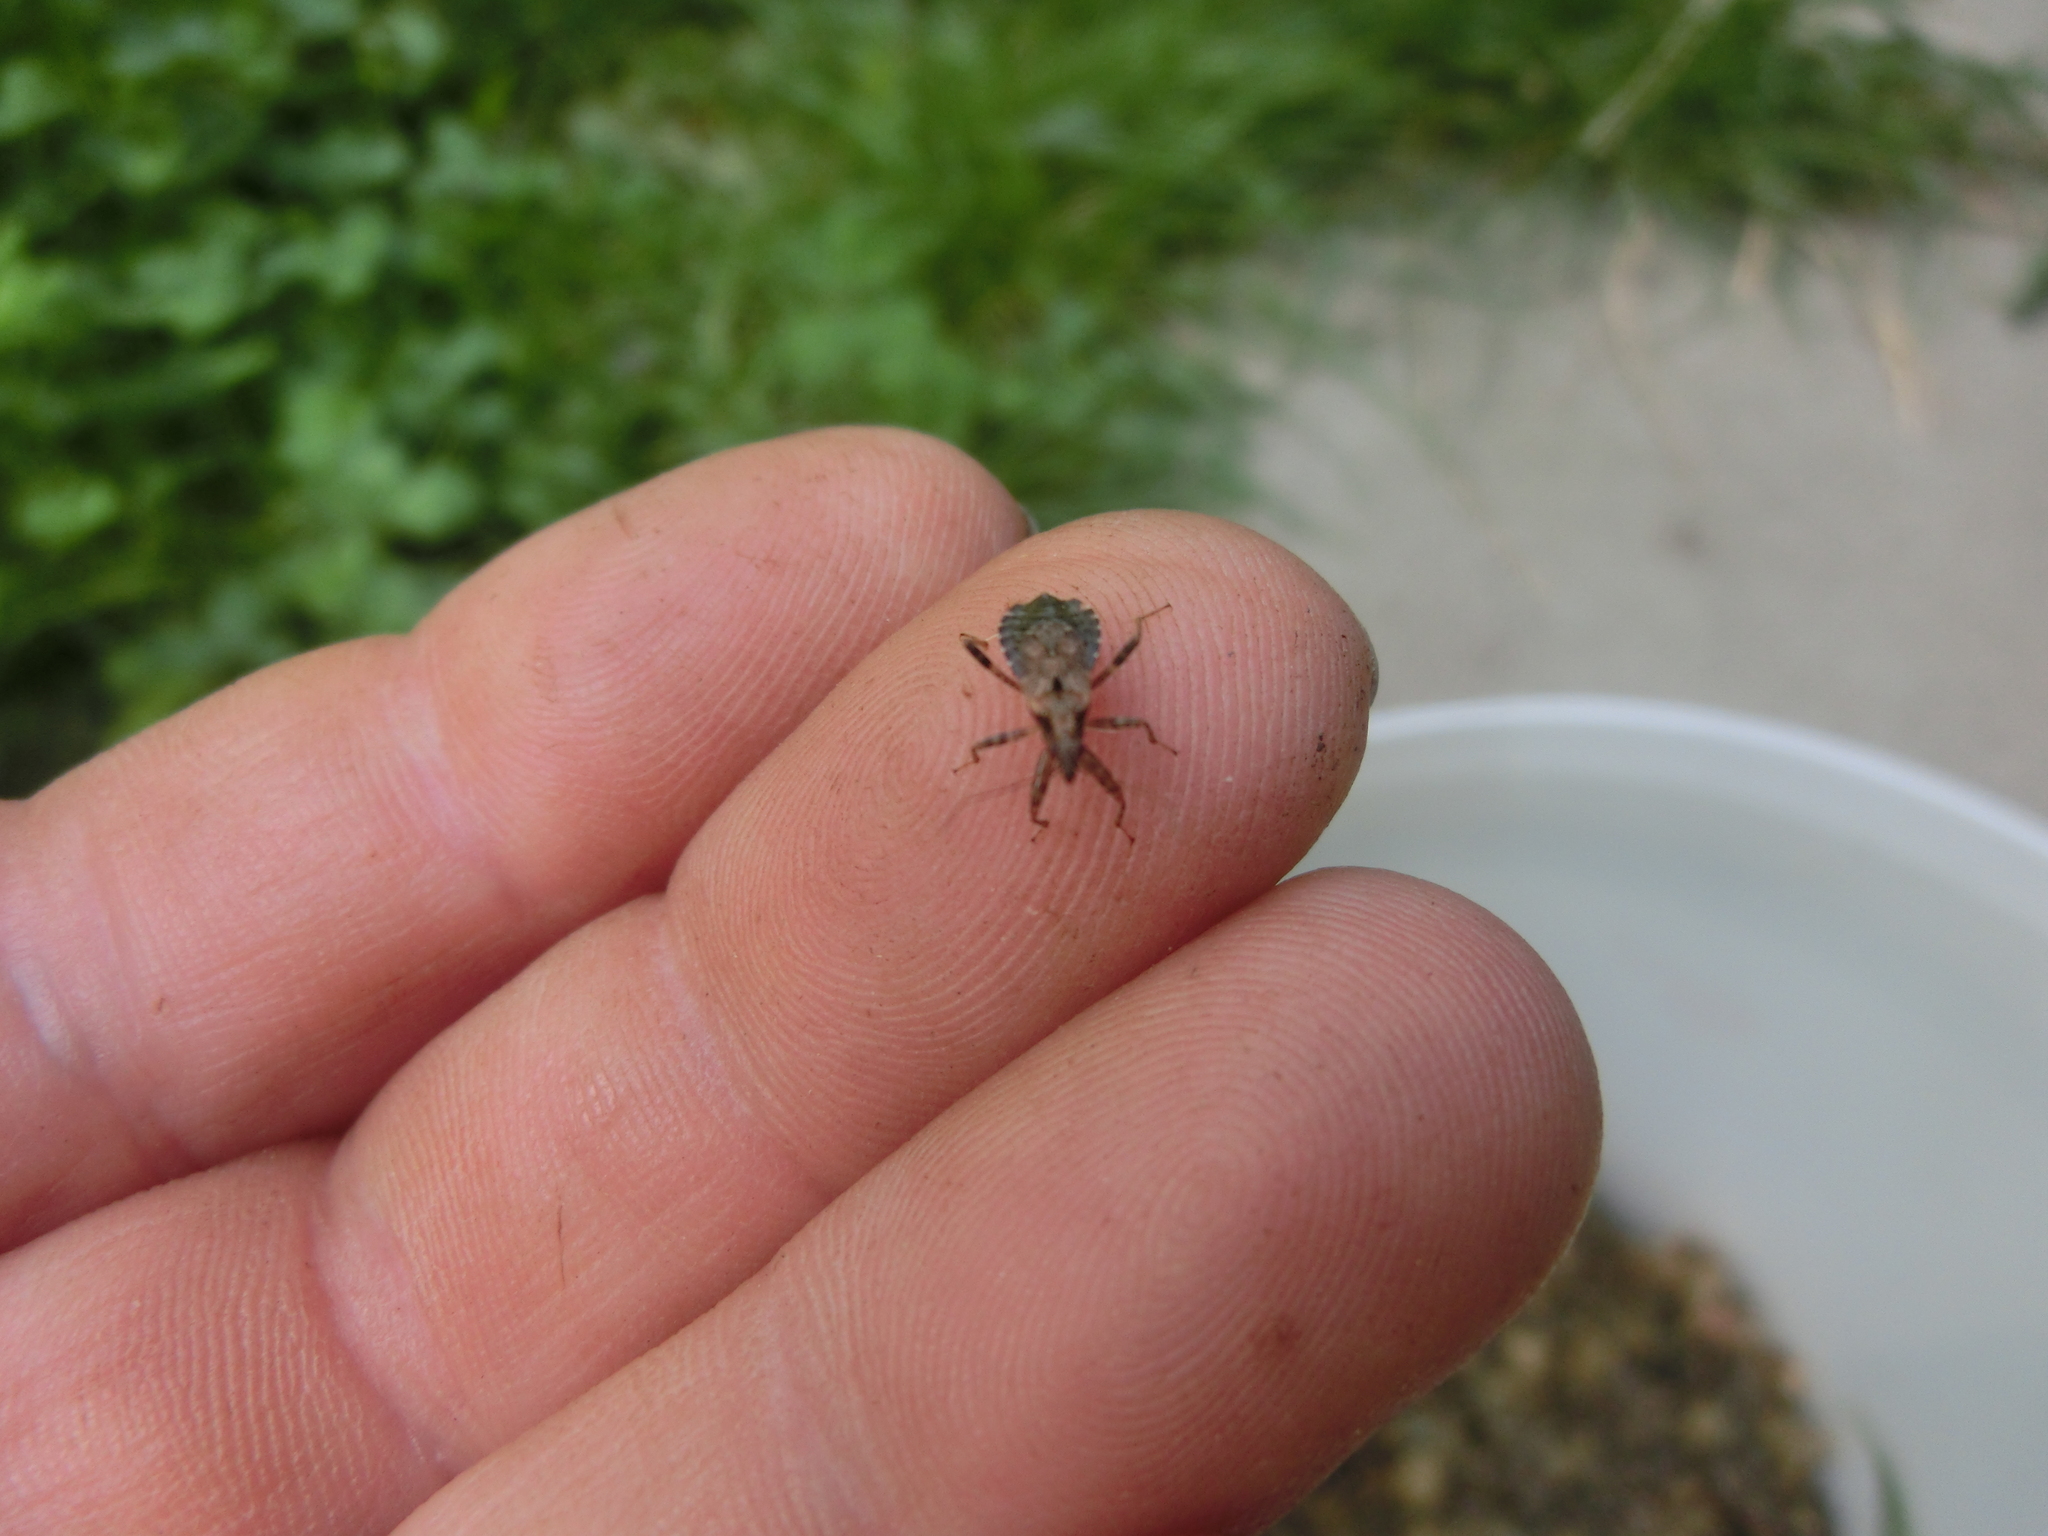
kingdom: Animalia
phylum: Arthropoda
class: Insecta
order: Hemiptera
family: Nabidae
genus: Himacerus
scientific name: Himacerus mirmicoides
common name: Ant damsel bug
